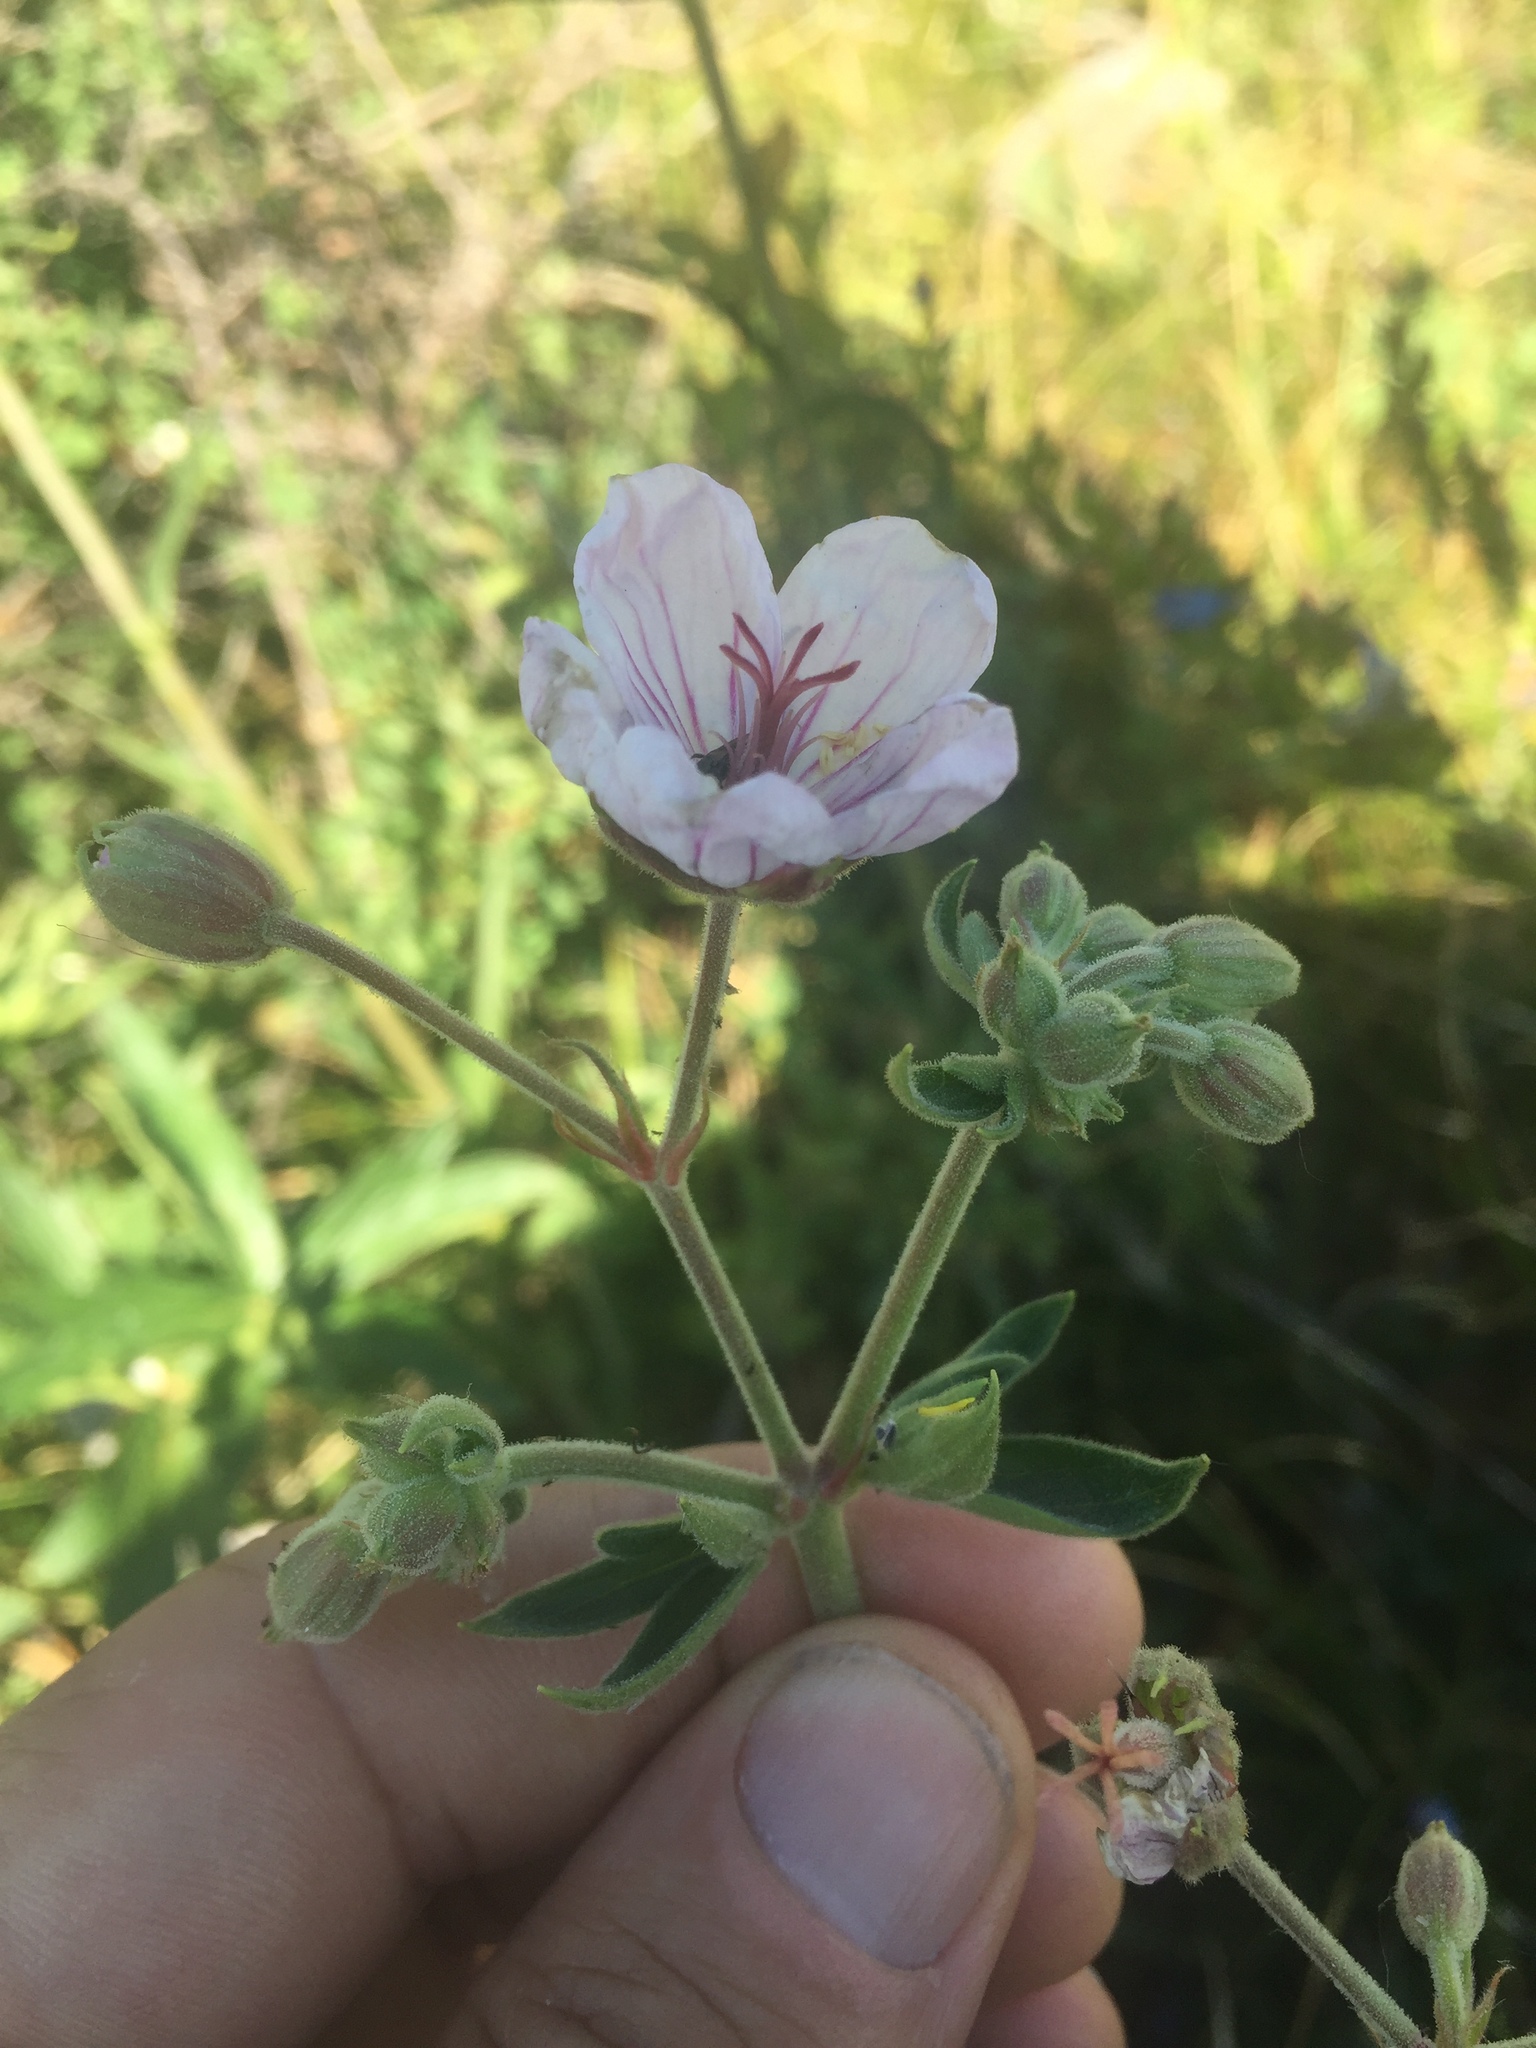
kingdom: Plantae
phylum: Tracheophyta
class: Magnoliopsida
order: Geraniales
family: Geraniaceae
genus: Geranium
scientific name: Geranium richardsonii
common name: Richardson's crane's-bill
